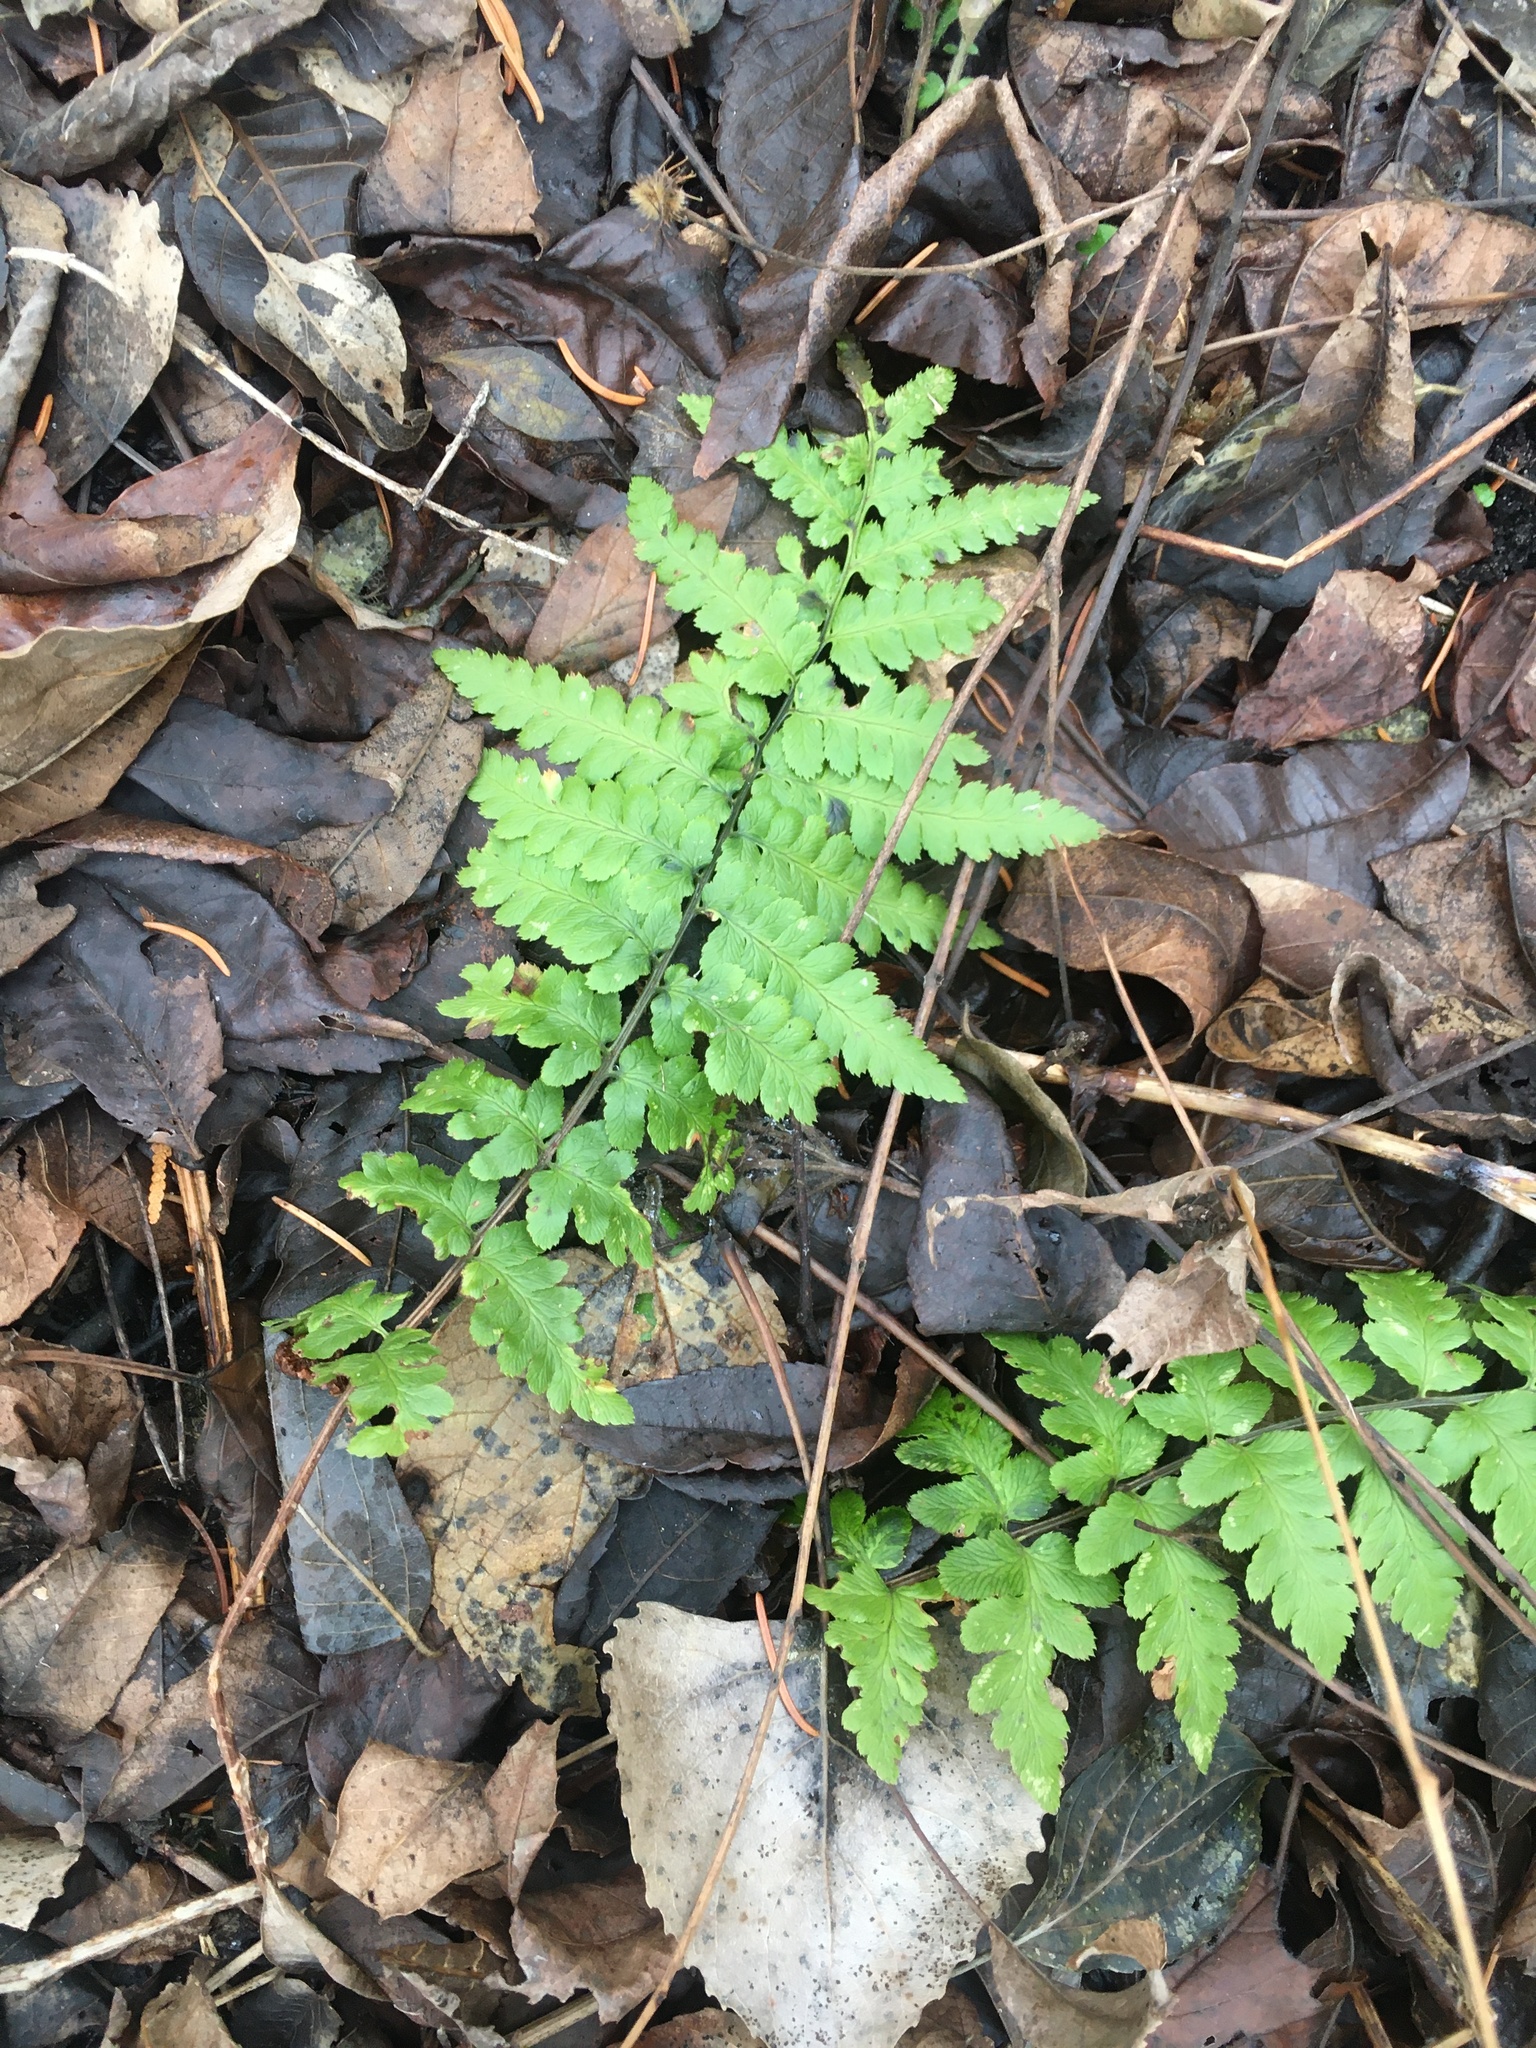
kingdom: Plantae
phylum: Tracheophyta
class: Polypodiopsida
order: Polypodiales
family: Dryopteridaceae
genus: Dryopteris
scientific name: Dryopteris cristata
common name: Crested wood fern
